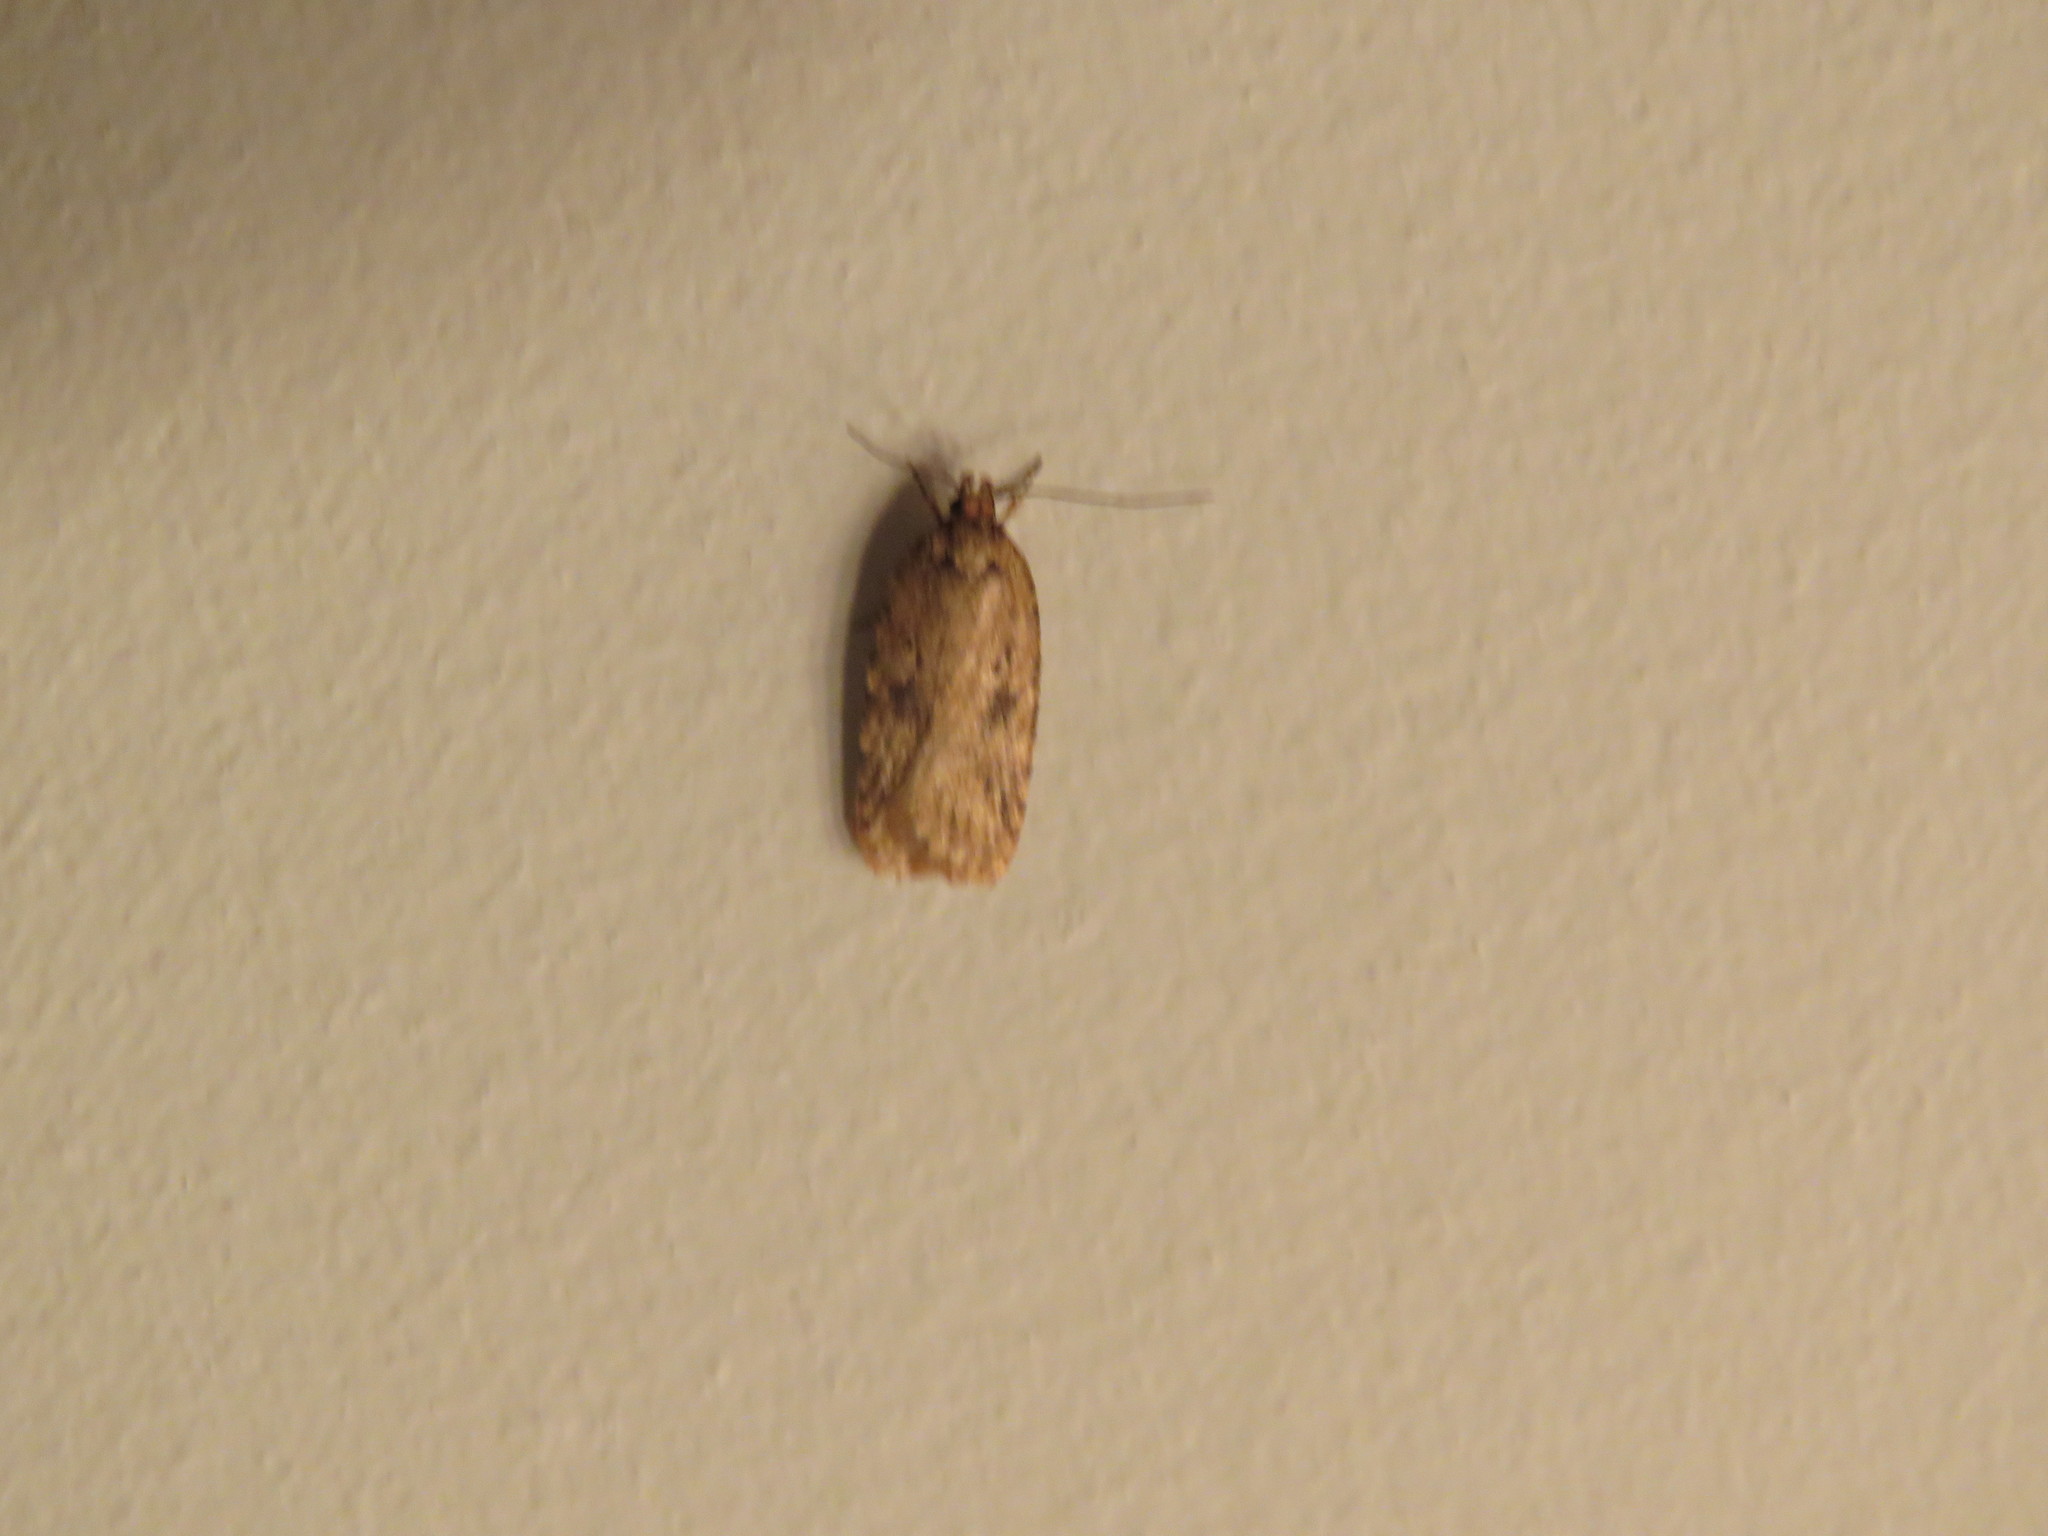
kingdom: Animalia
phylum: Arthropoda
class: Insecta
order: Lepidoptera
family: Depressariidae
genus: Agonopterix
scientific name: Agonopterix pulvipennella
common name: Goldenrod leafffolder
